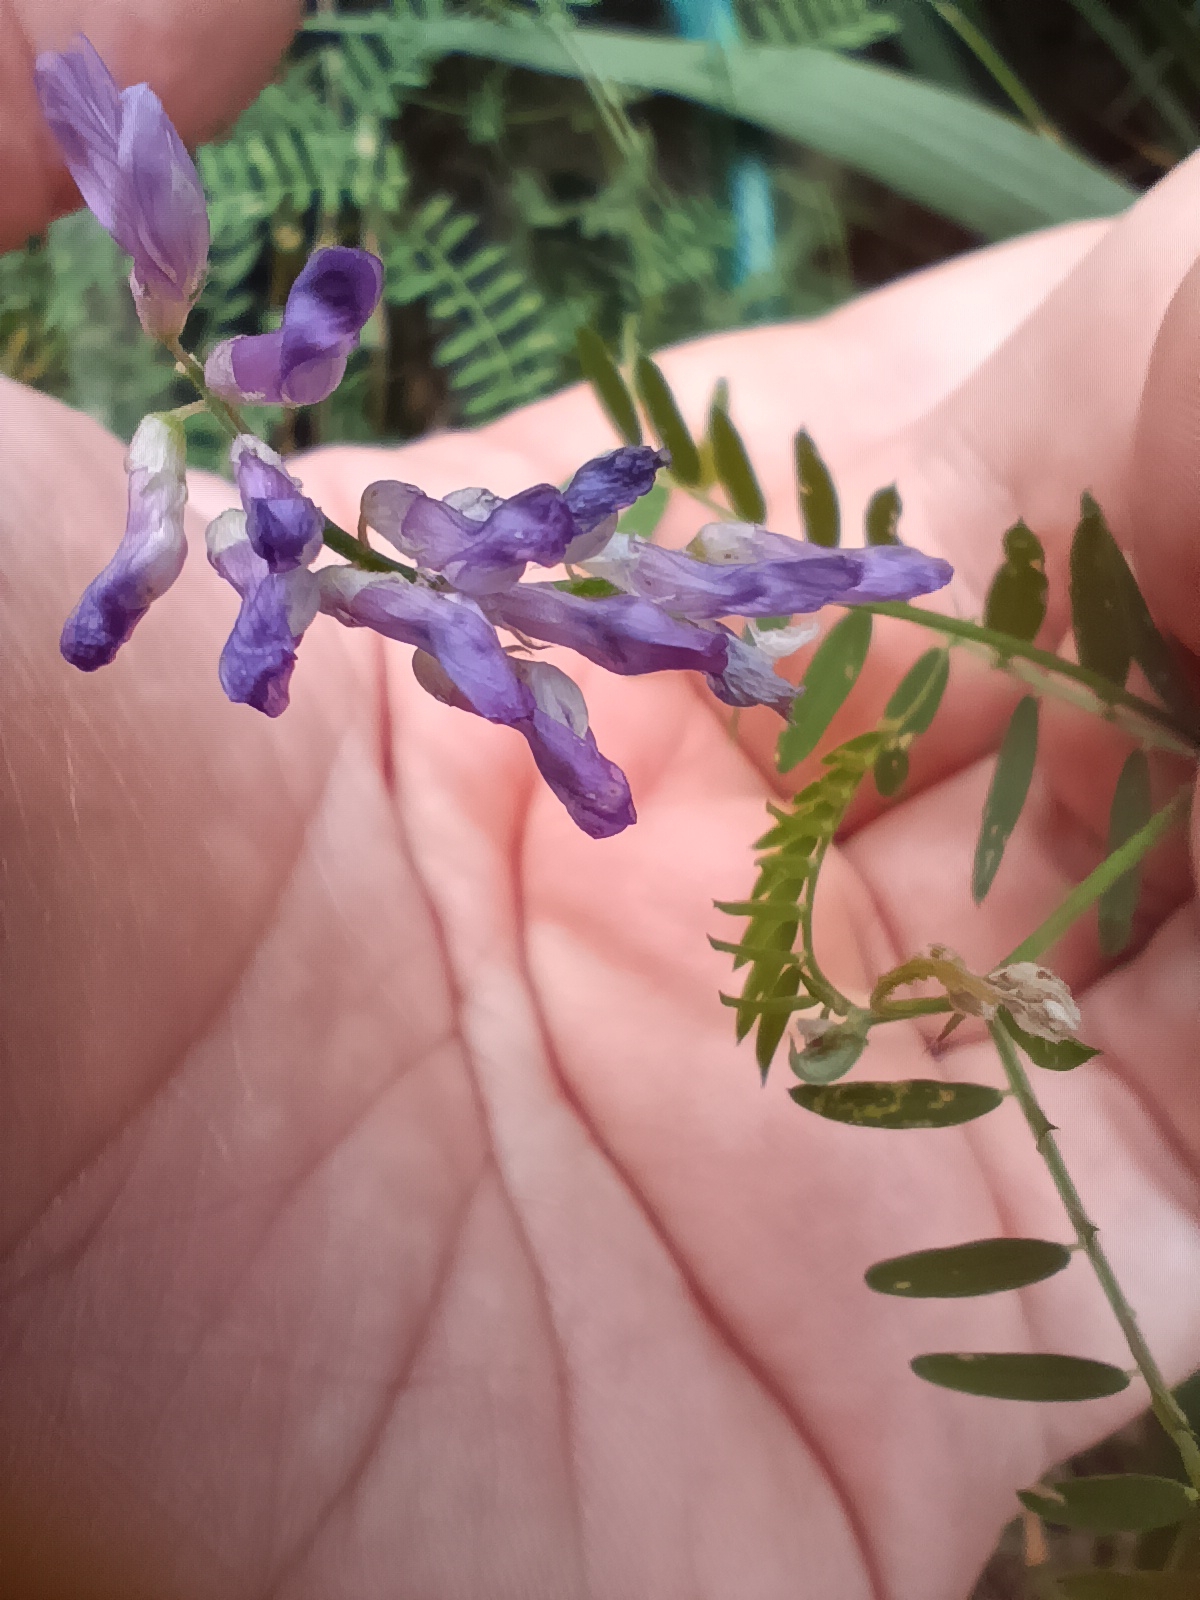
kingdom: Plantae
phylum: Tracheophyta
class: Magnoliopsida
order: Fabales
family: Fabaceae
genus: Vicia
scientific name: Vicia cracca
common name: Bird vetch
